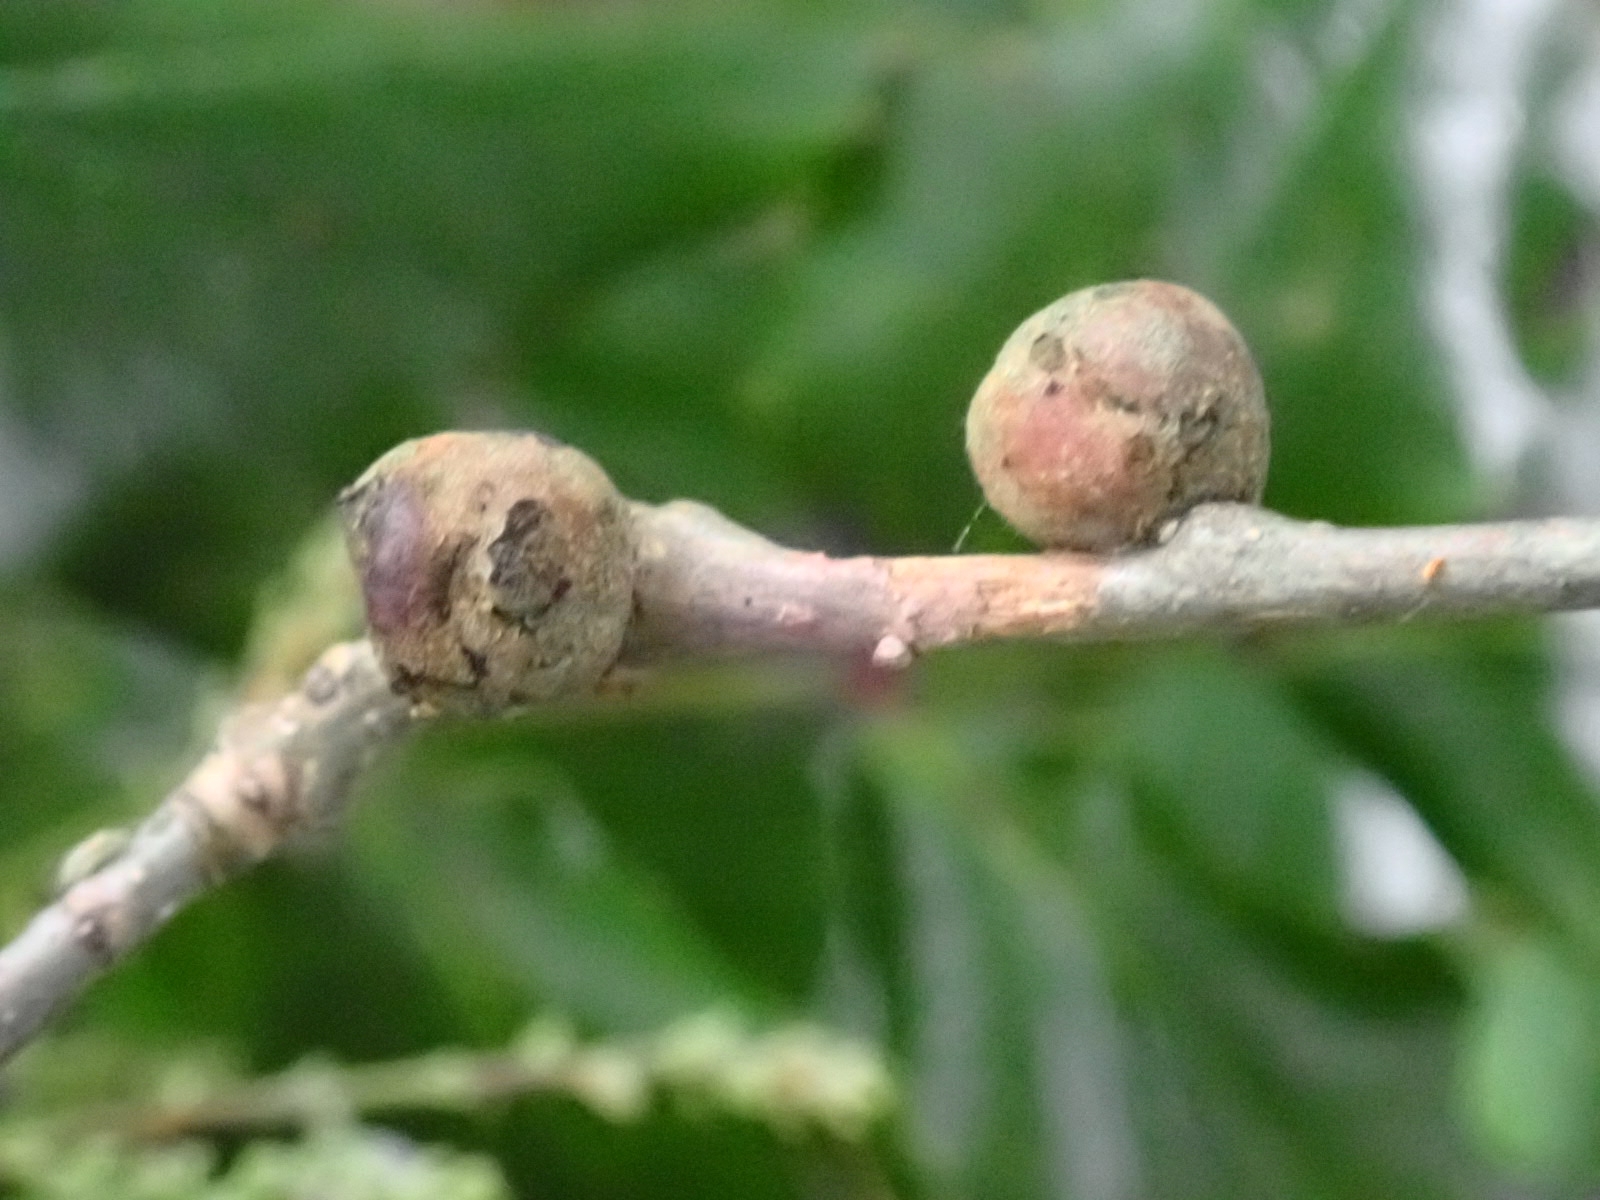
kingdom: Animalia
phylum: Arthropoda
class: Insecta
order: Hymenoptera
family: Cynipidae
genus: Andricus
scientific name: Andricus lignicolus
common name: Cola-nut gall
